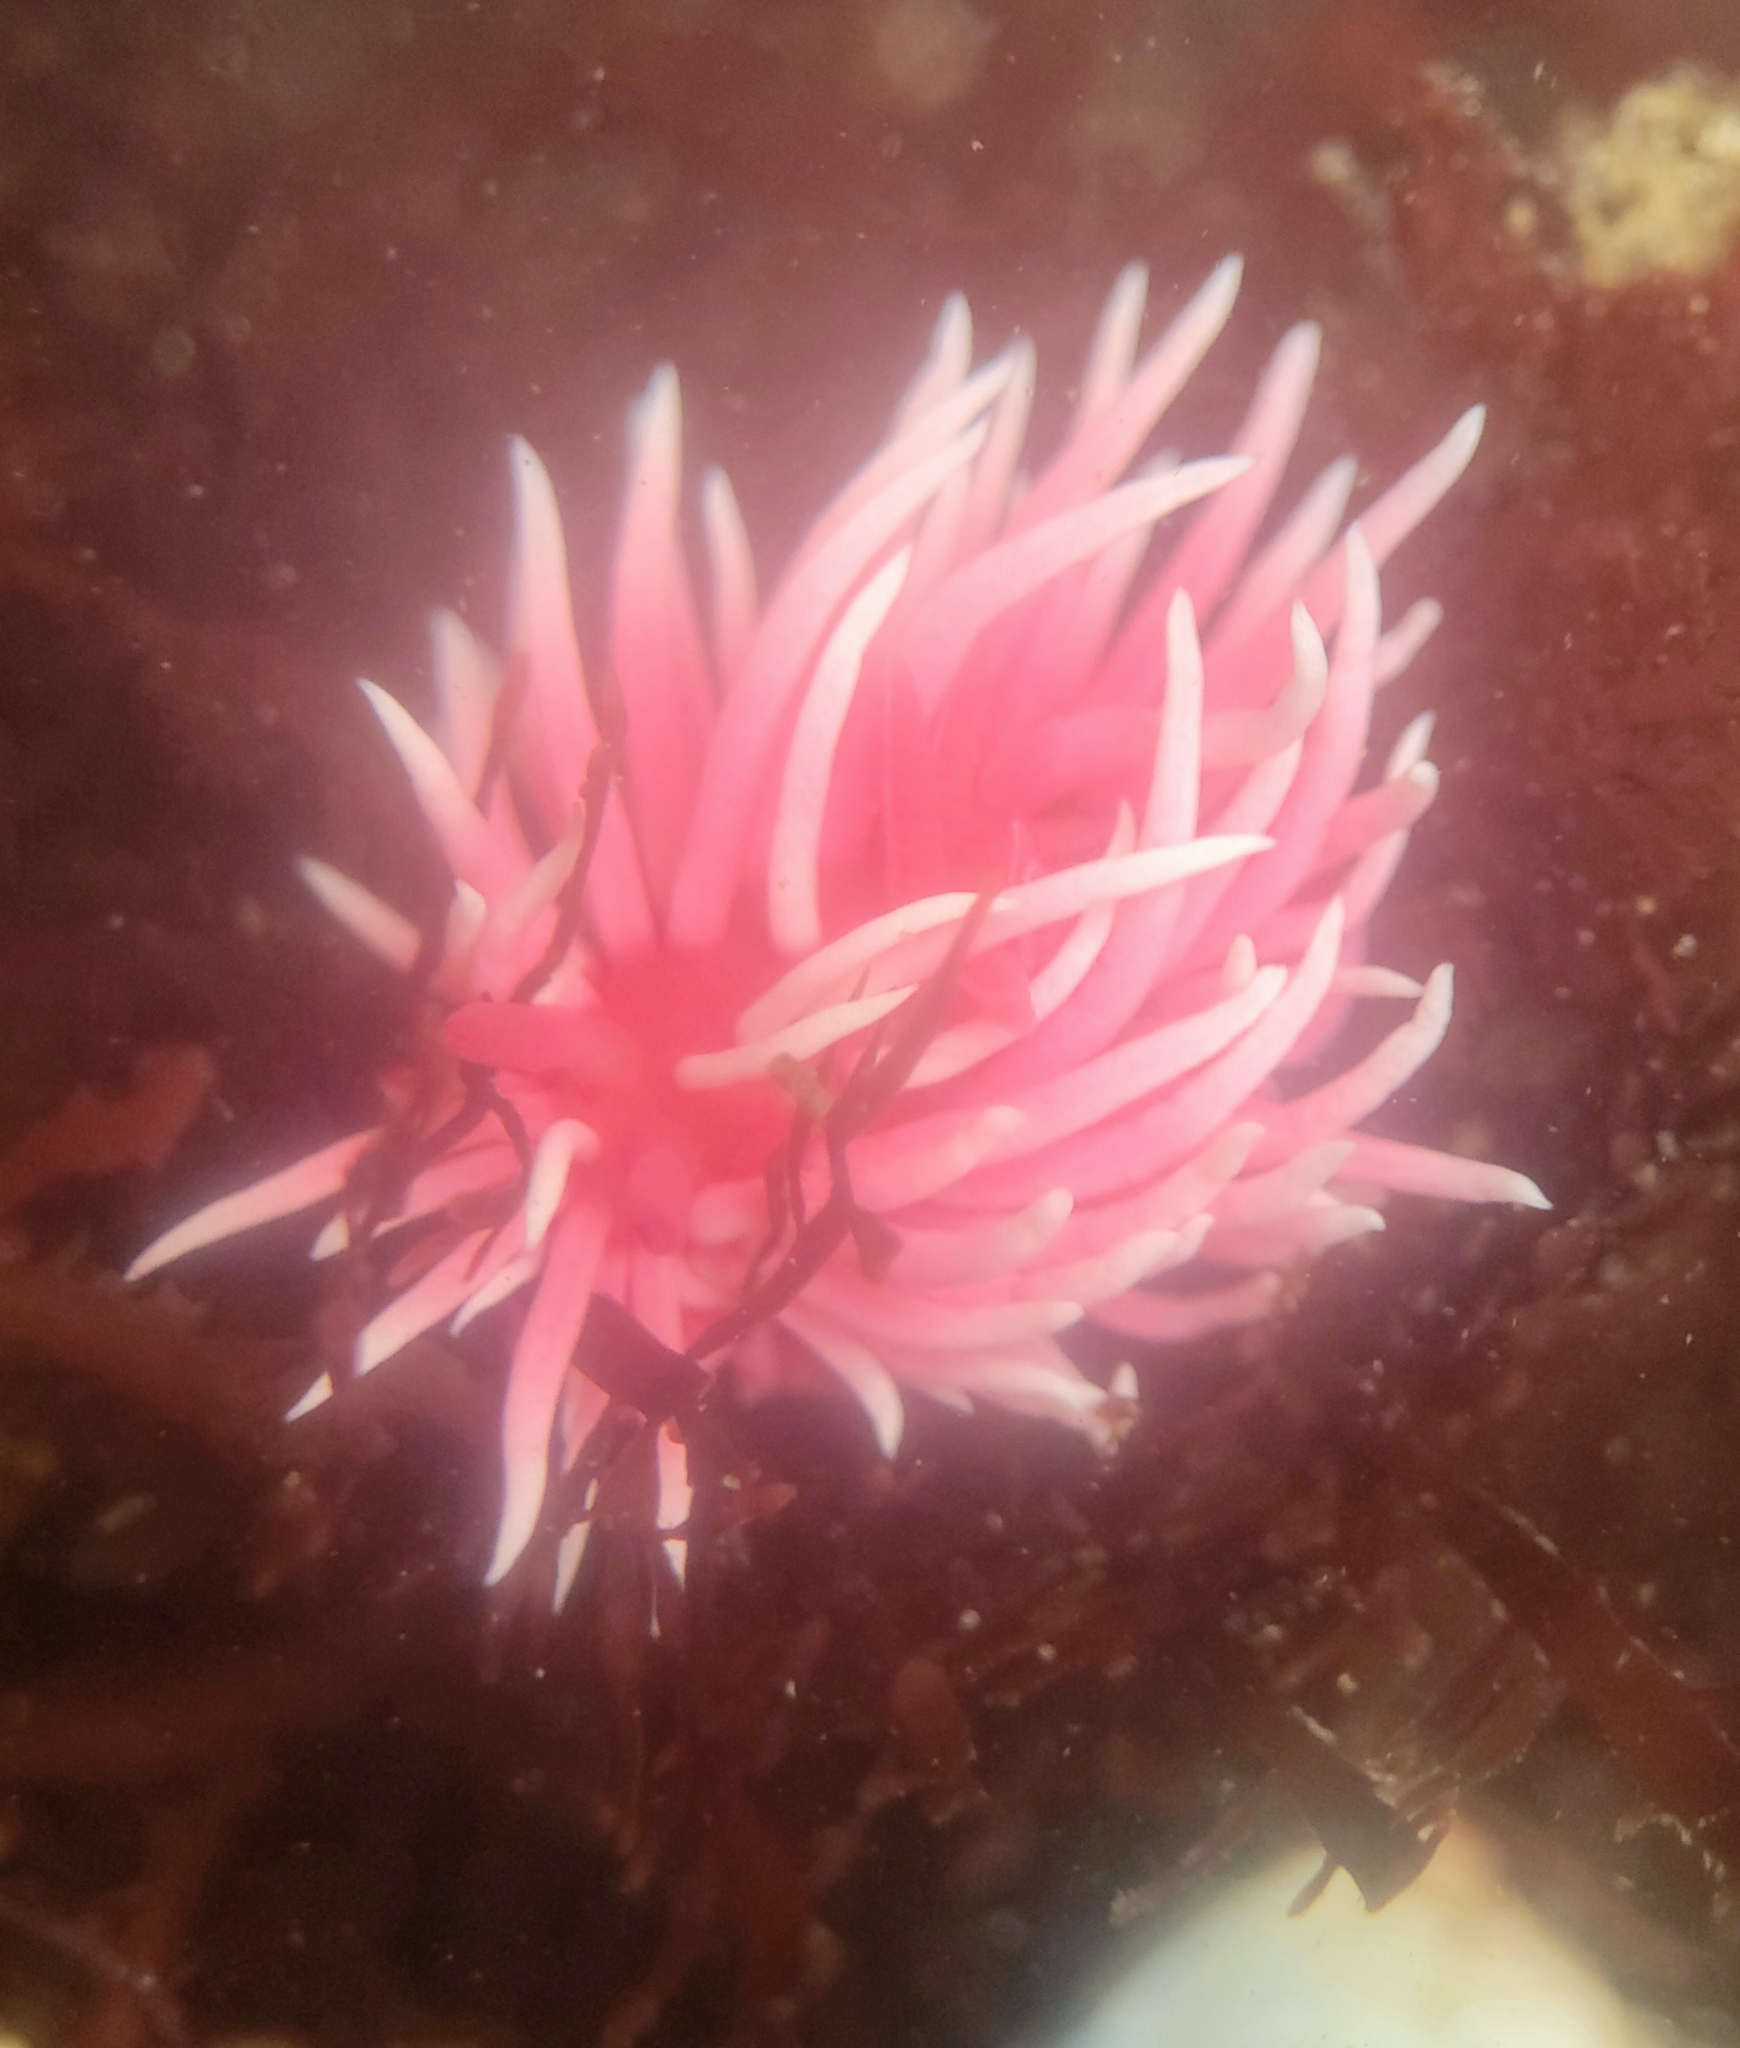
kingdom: Animalia
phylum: Mollusca
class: Gastropoda
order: Nudibranchia
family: Goniodorididae
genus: Okenia
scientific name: Okenia
